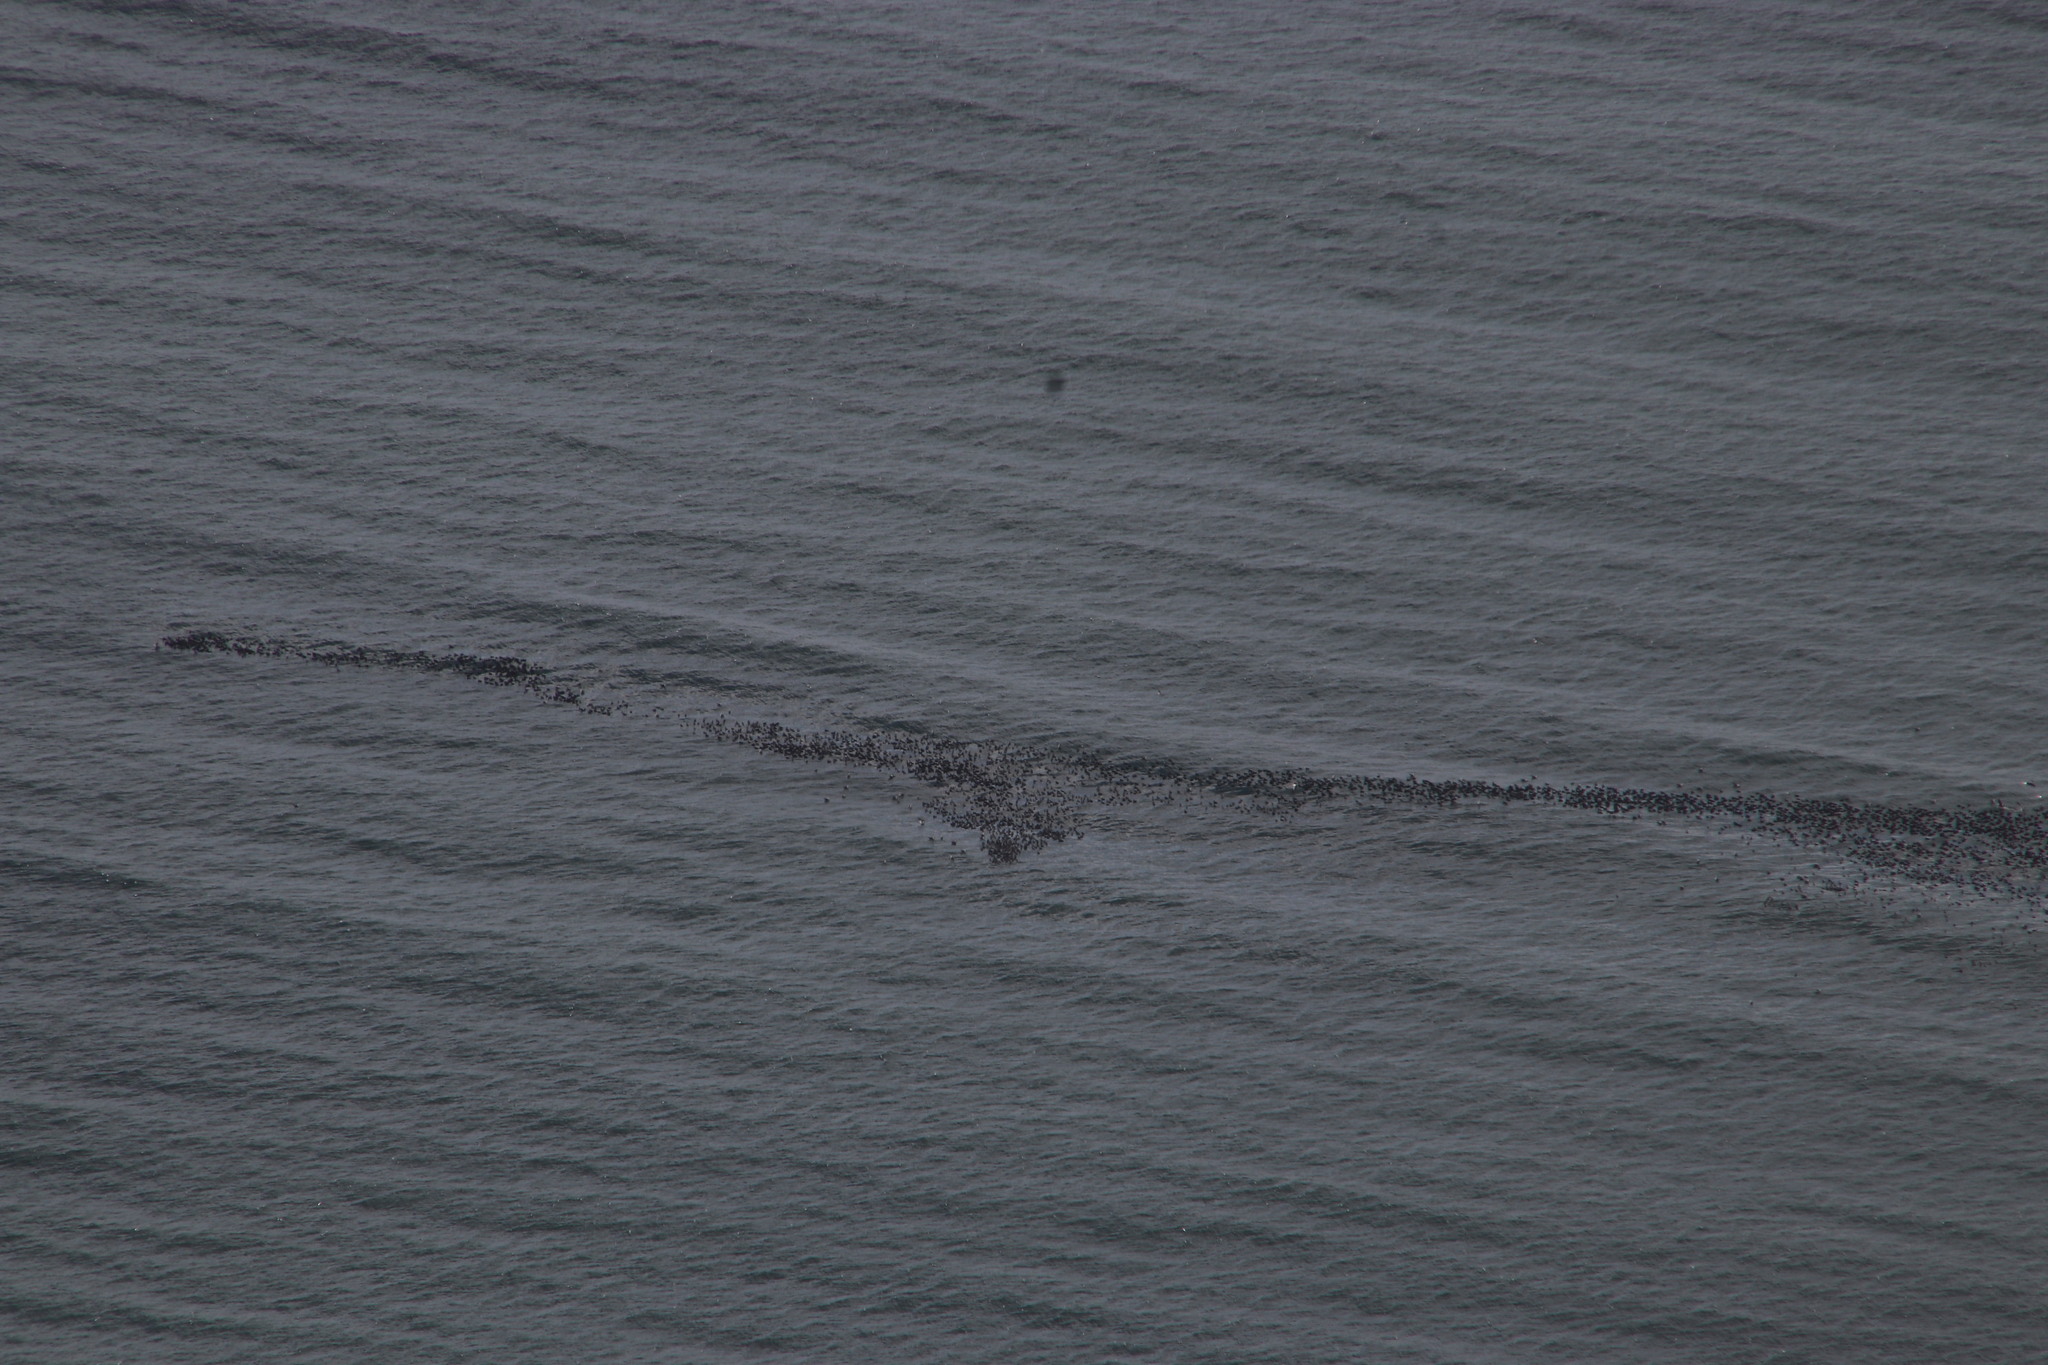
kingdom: Animalia
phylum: Chordata
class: Aves
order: Suliformes
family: Phalacrocoracidae
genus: Phalacrocorax
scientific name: Phalacrocorax capensis
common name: Cape cormorant
